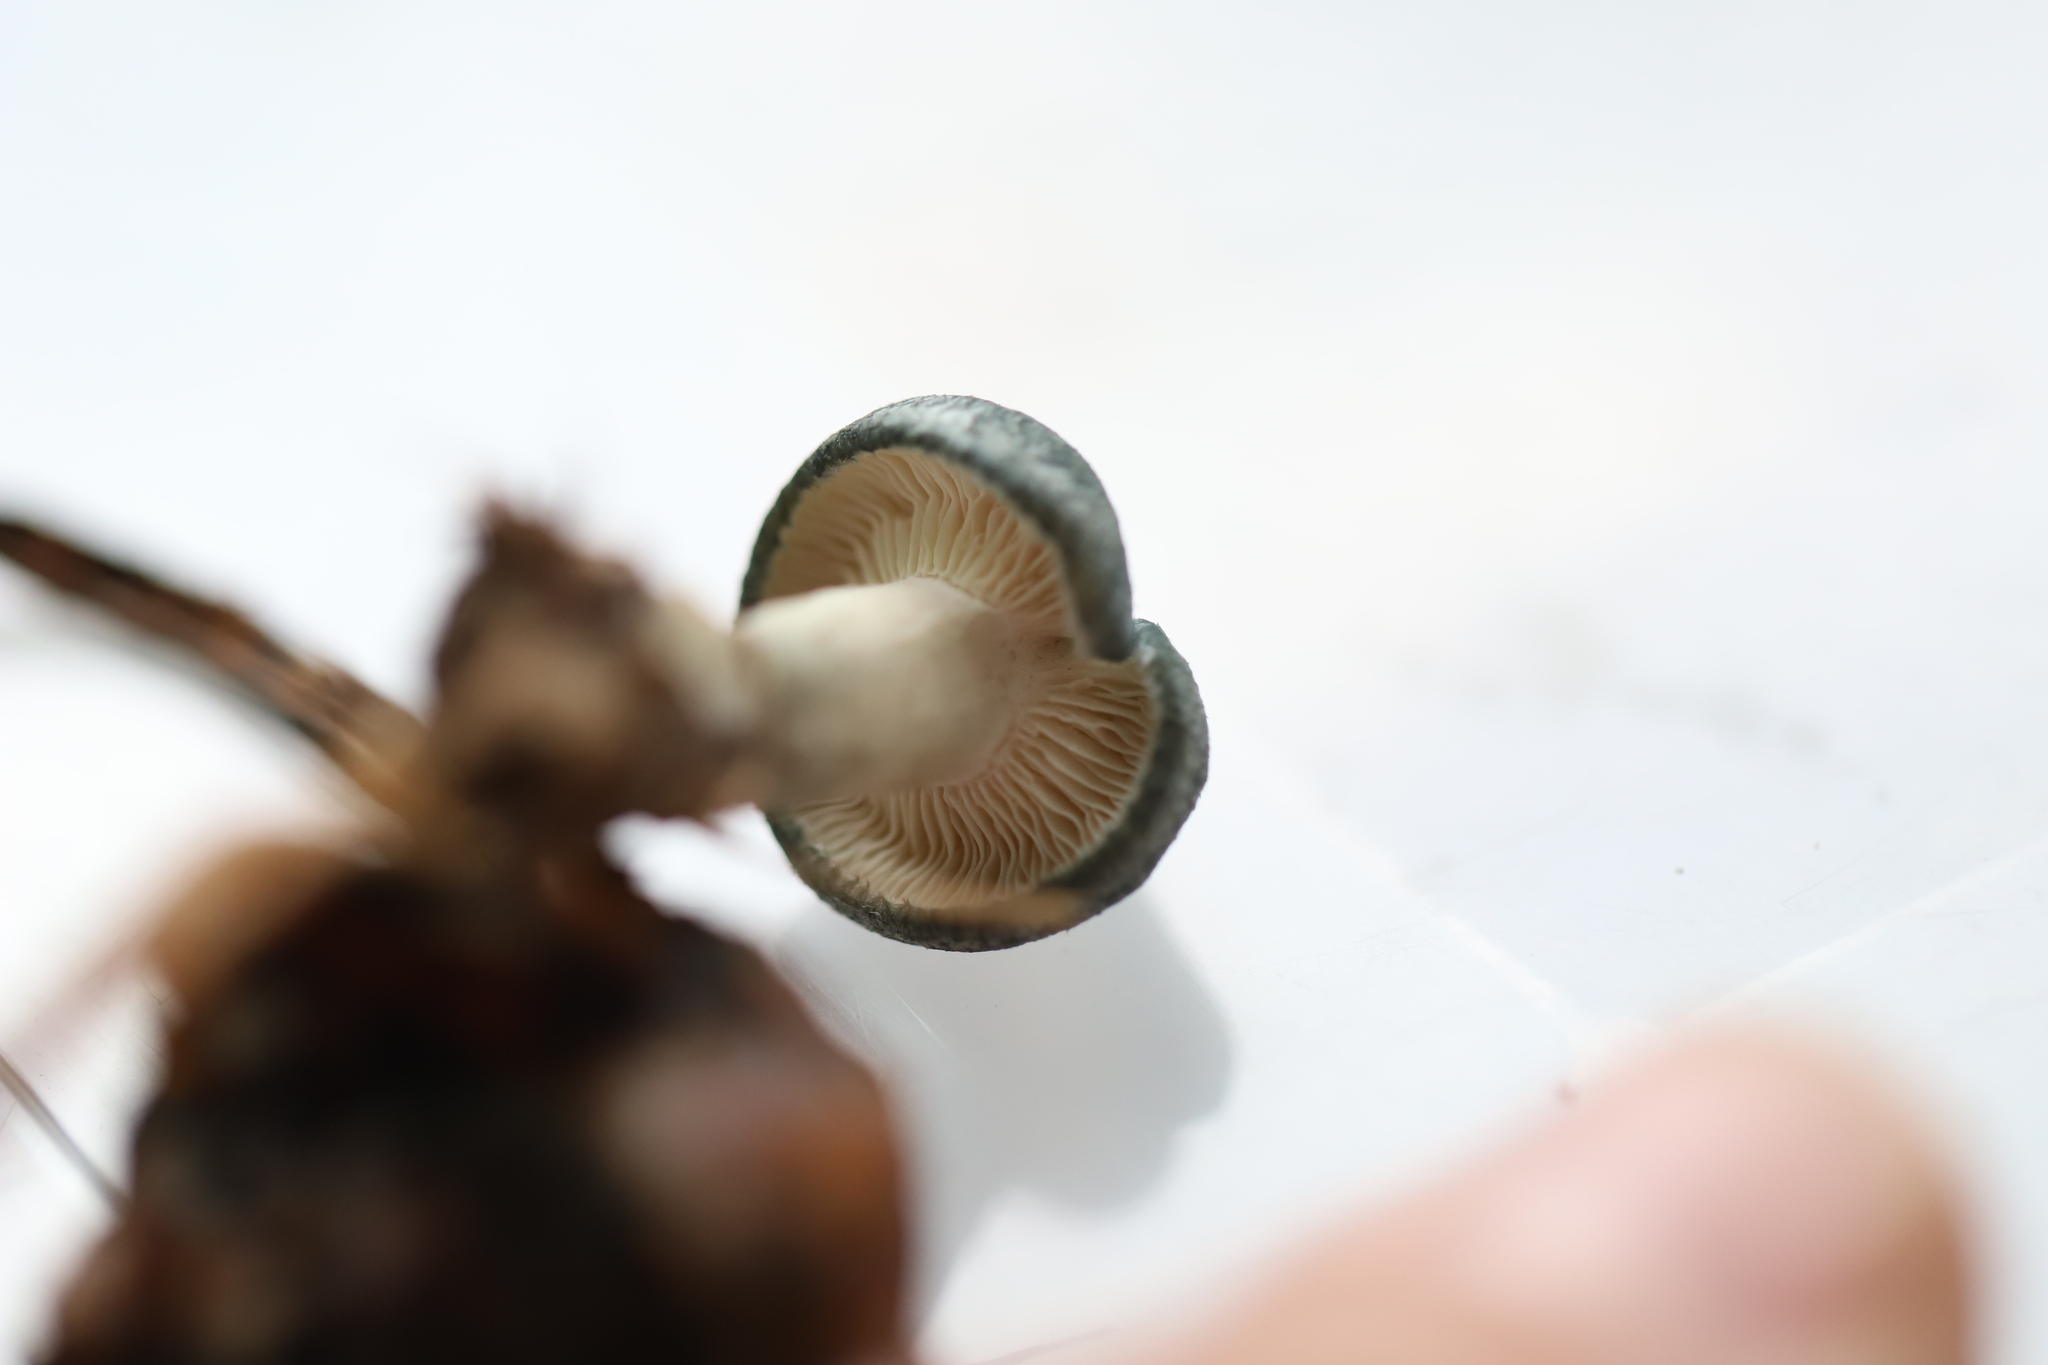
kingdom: Fungi
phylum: Basidiomycota
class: Agaricomycetes
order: Agaricales
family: Tricholomataceae
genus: Collybia
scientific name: Collybia
